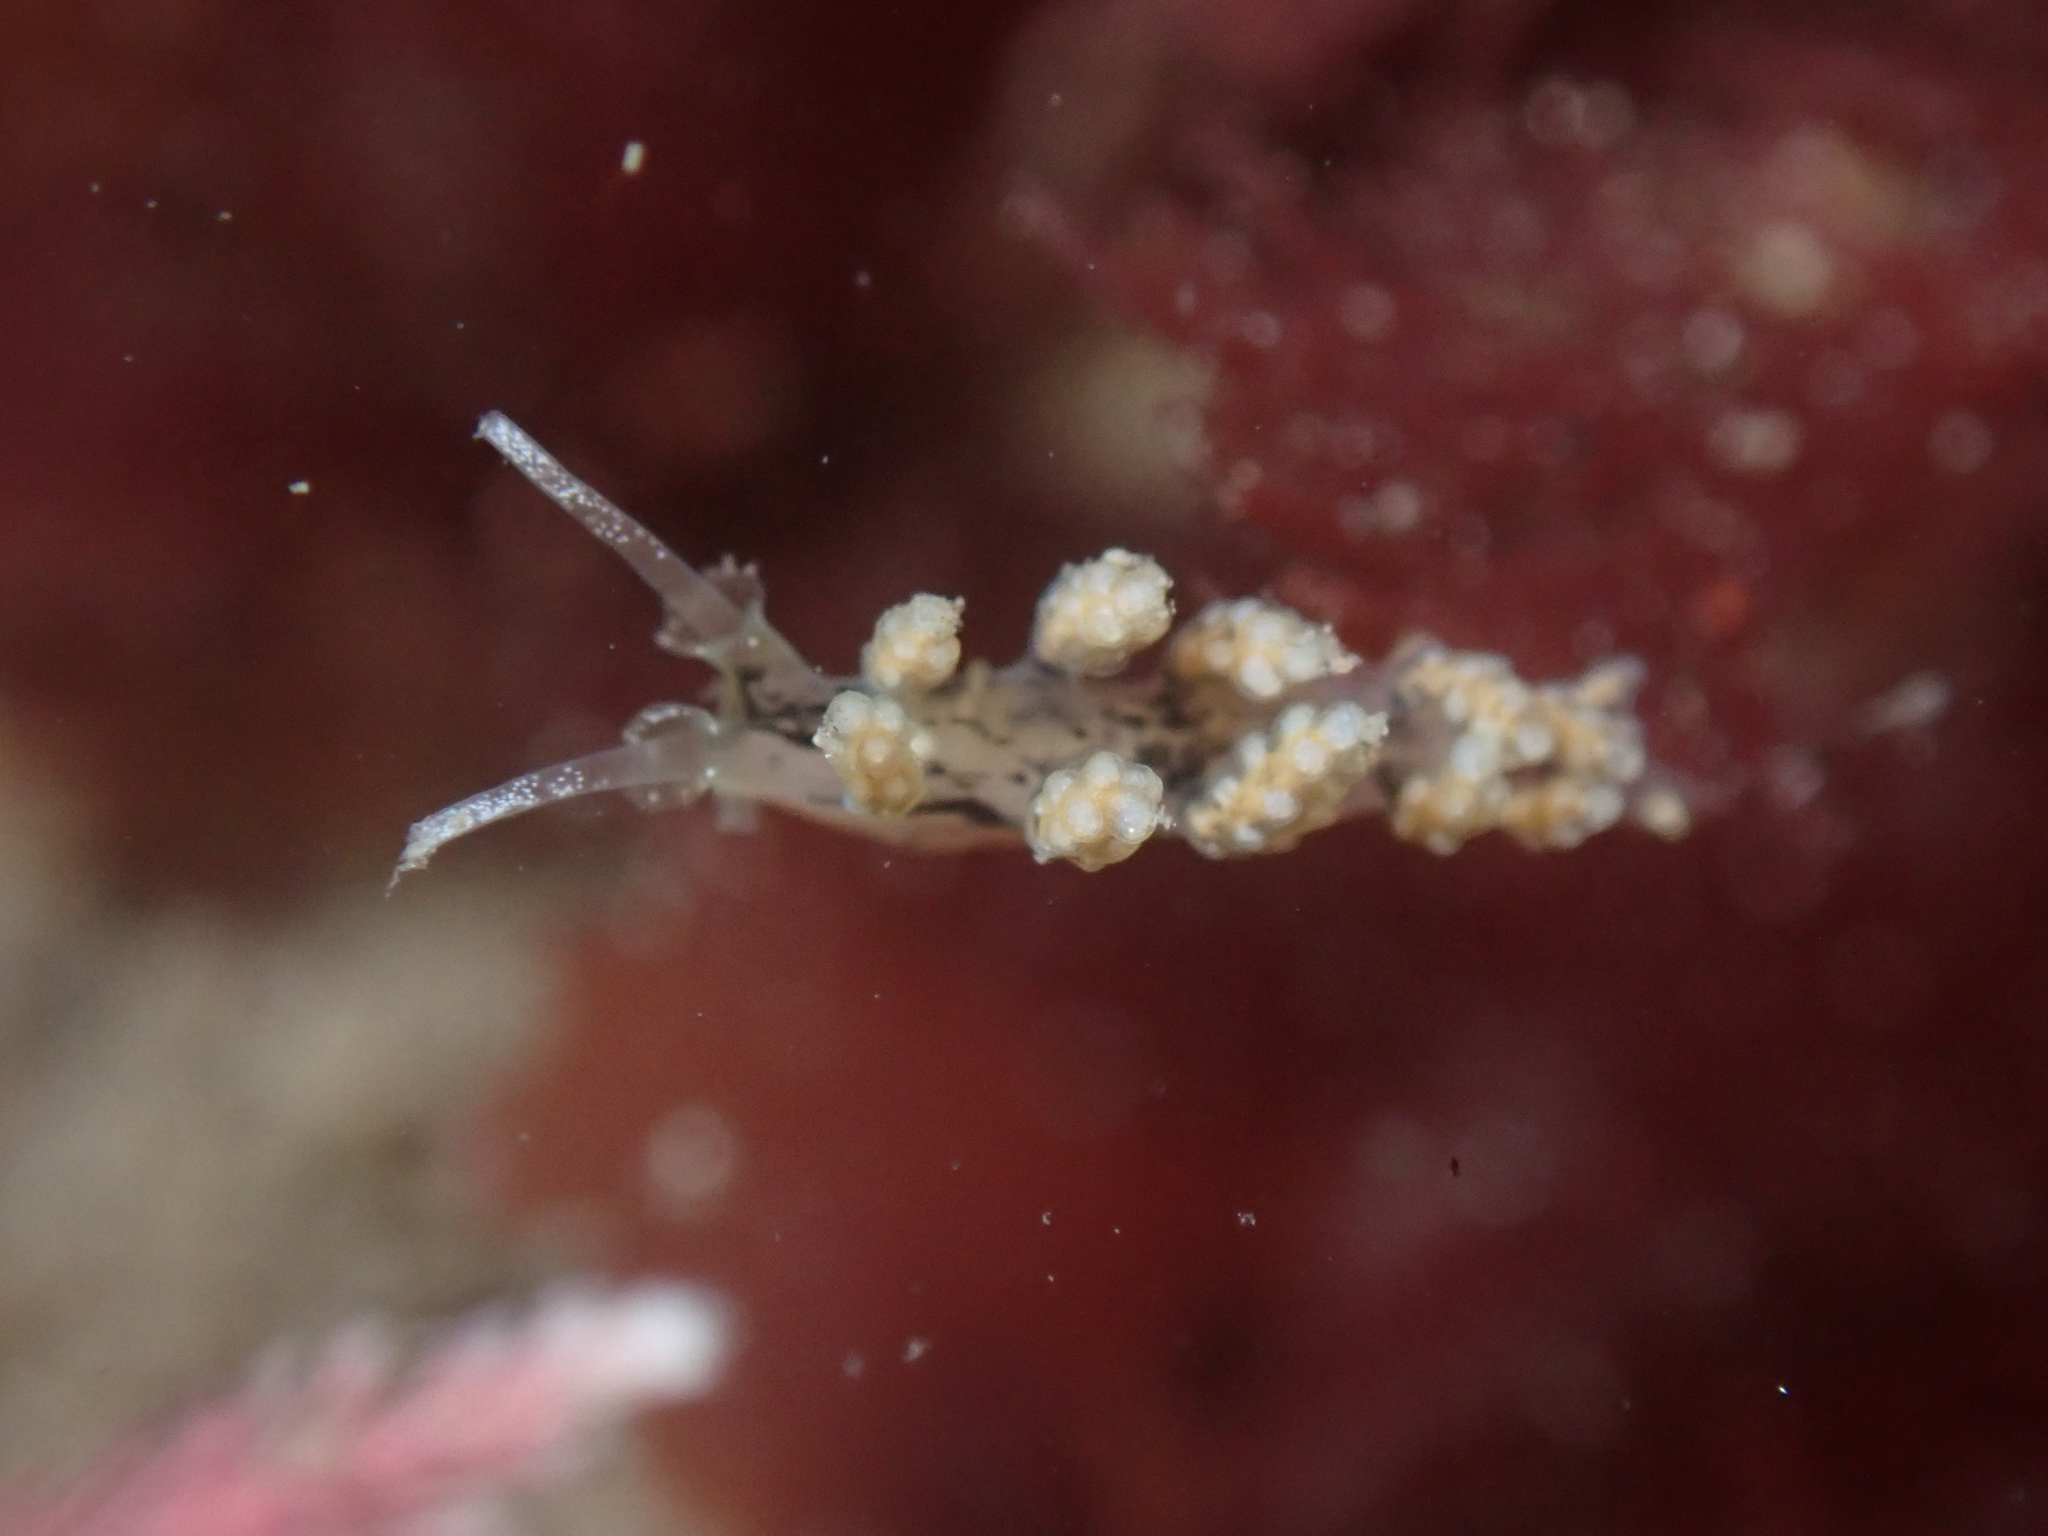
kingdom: Animalia
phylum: Mollusca
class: Gastropoda
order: Nudibranchia
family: Dotidae
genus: Doto
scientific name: Doto kya
